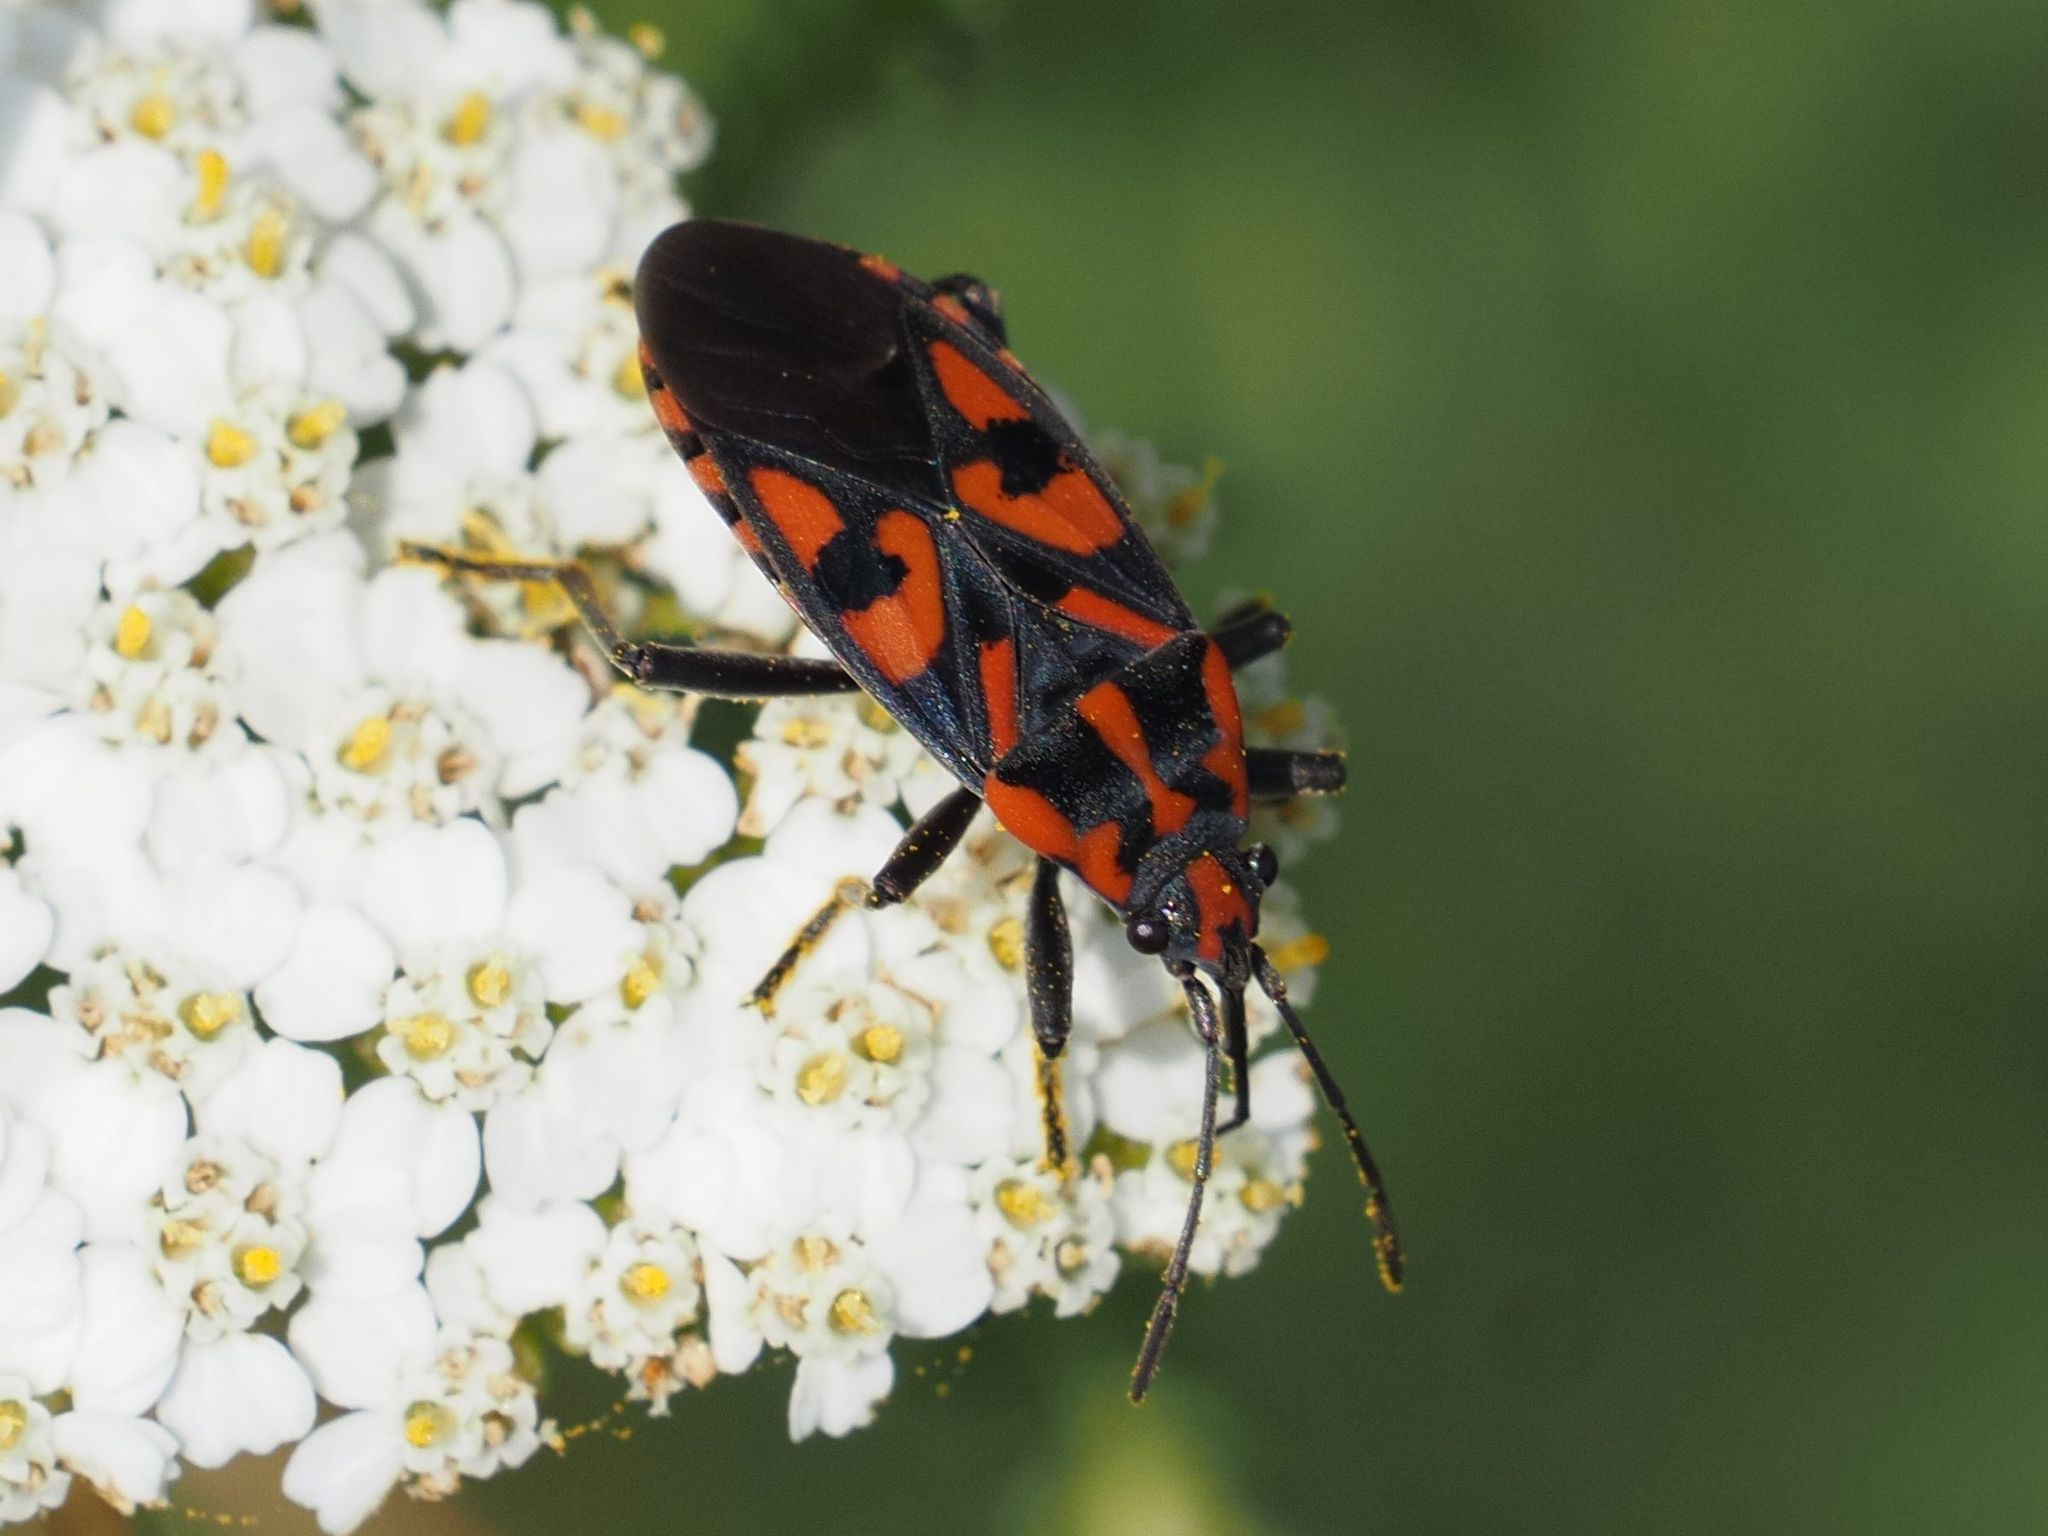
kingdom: Animalia
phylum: Arthropoda
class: Insecta
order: Hemiptera
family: Lygaeidae
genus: Spilostethus
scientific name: Spilostethus saxatilis
